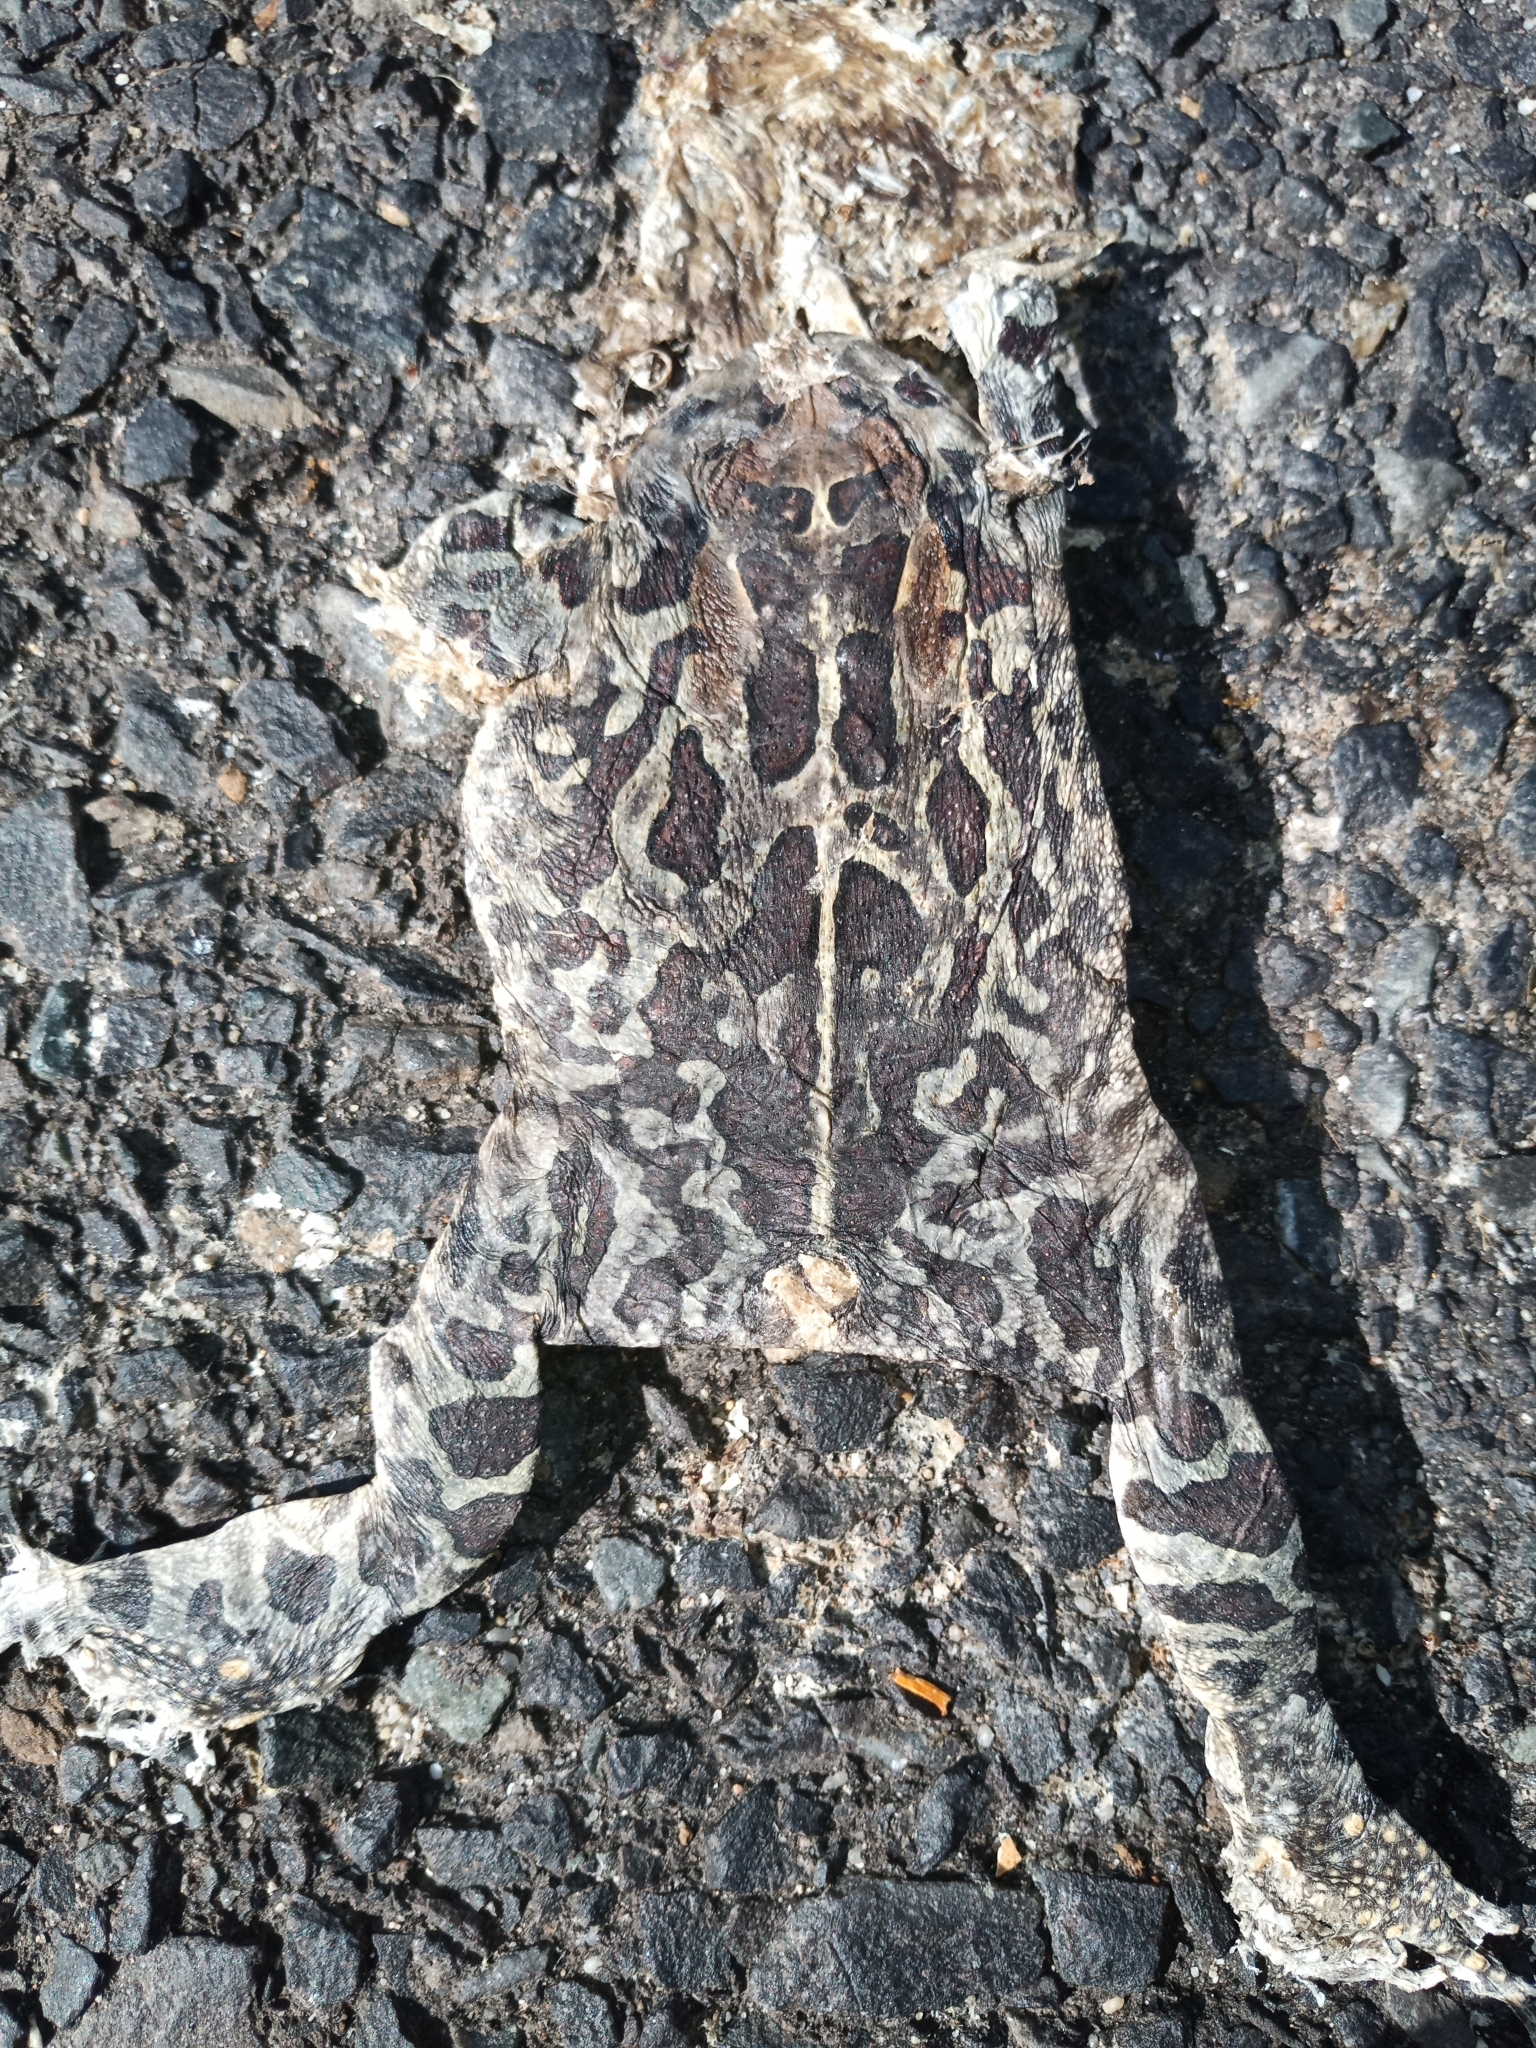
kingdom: Animalia
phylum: Chordata
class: Amphibia
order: Anura
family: Bufonidae
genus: Sclerophrys
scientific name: Sclerophrys pantherina
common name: Panther toad
